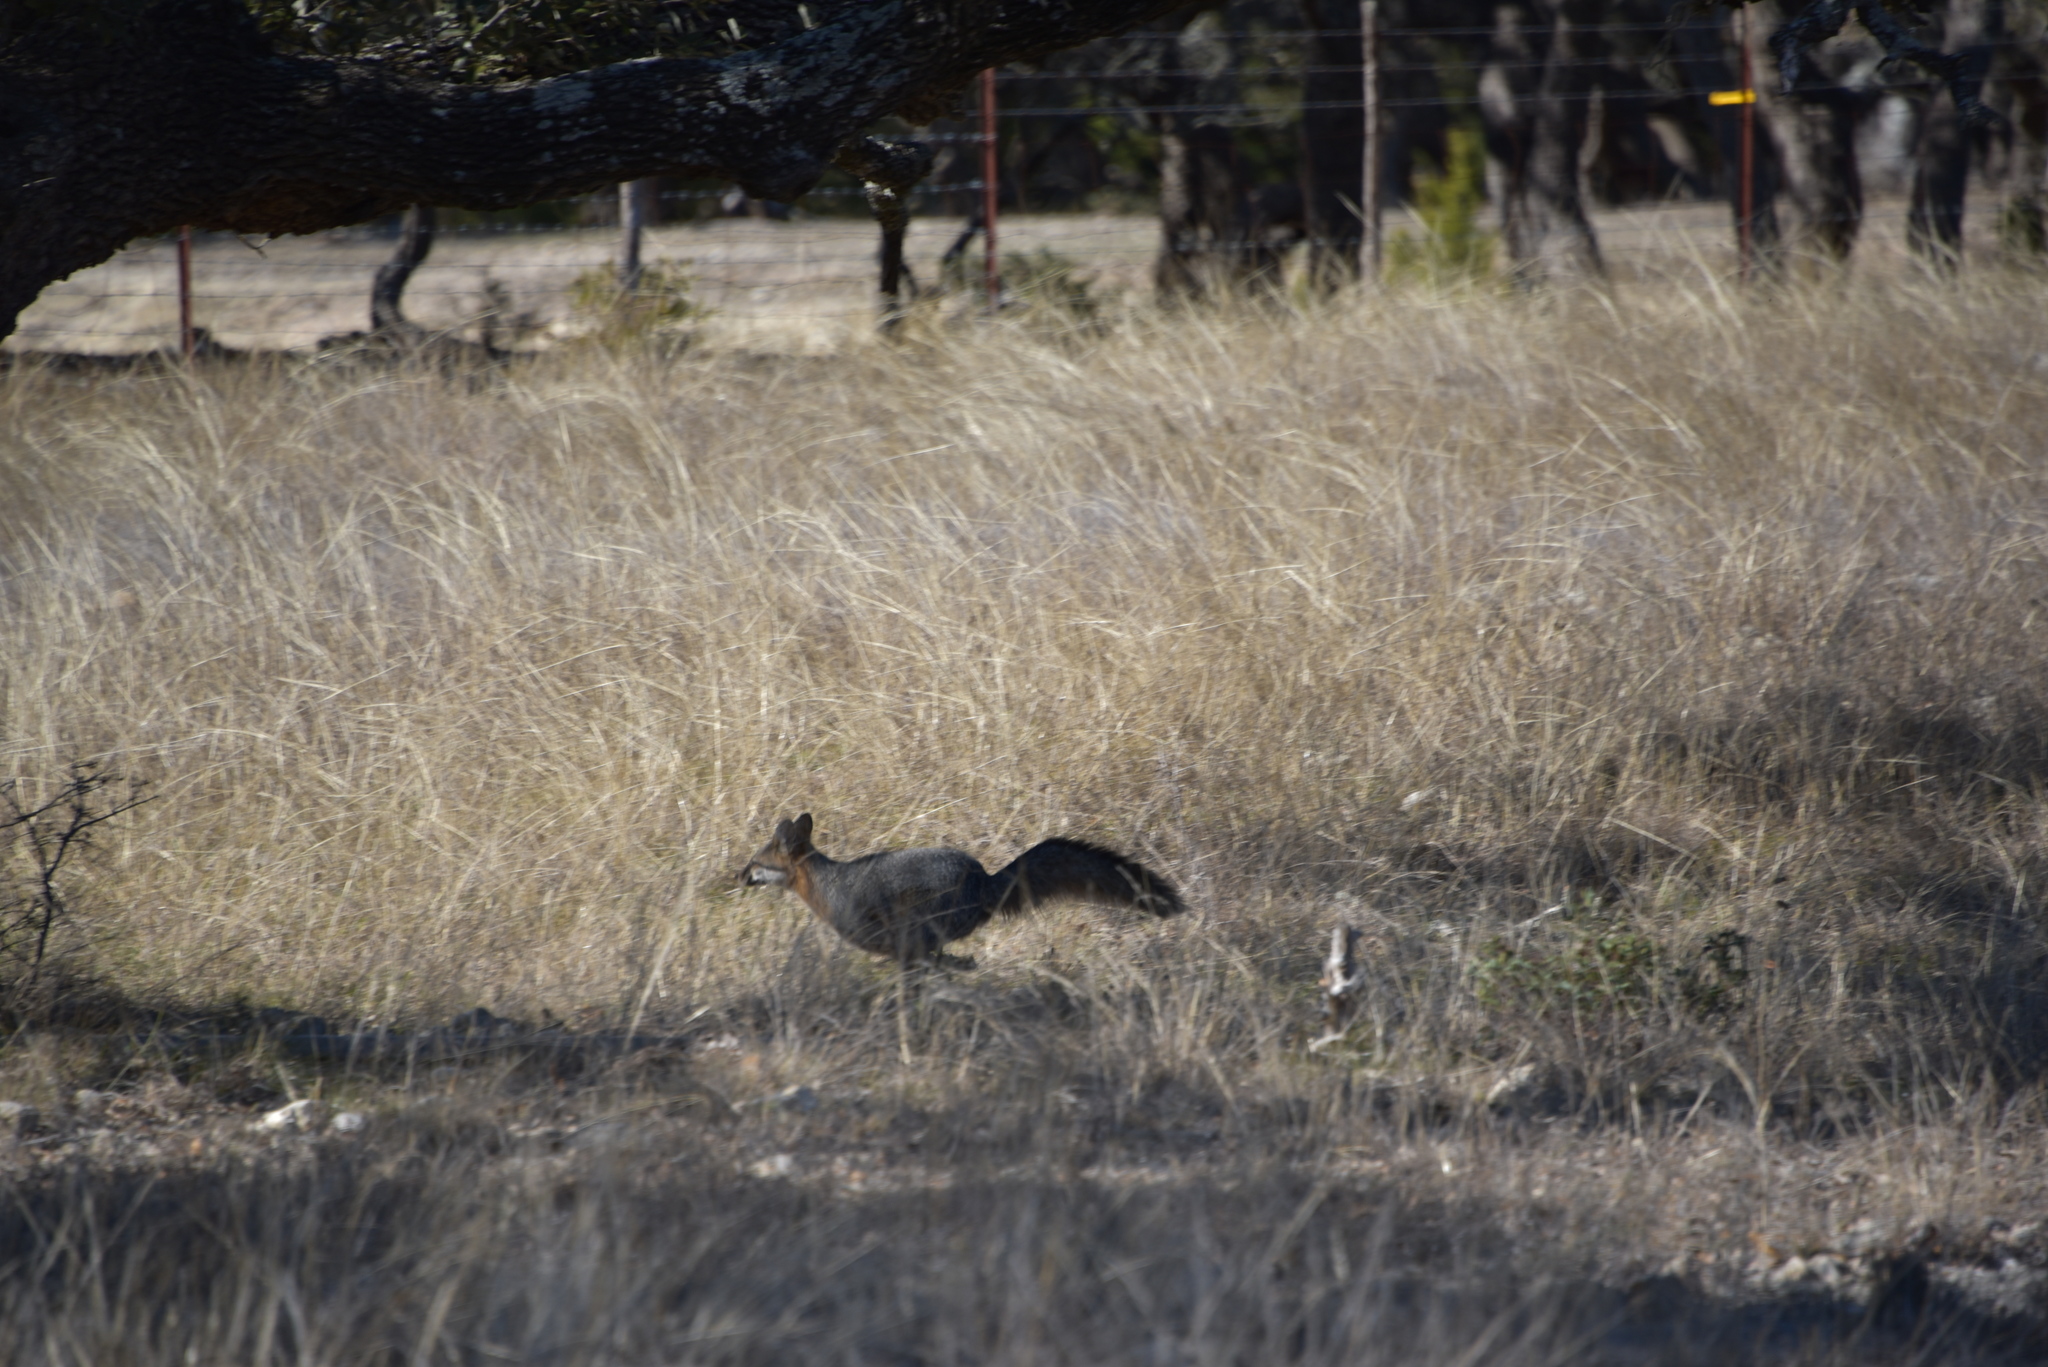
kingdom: Animalia
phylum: Chordata
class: Mammalia
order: Carnivora
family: Canidae
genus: Urocyon
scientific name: Urocyon cinereoargenteus
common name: Gray fox
